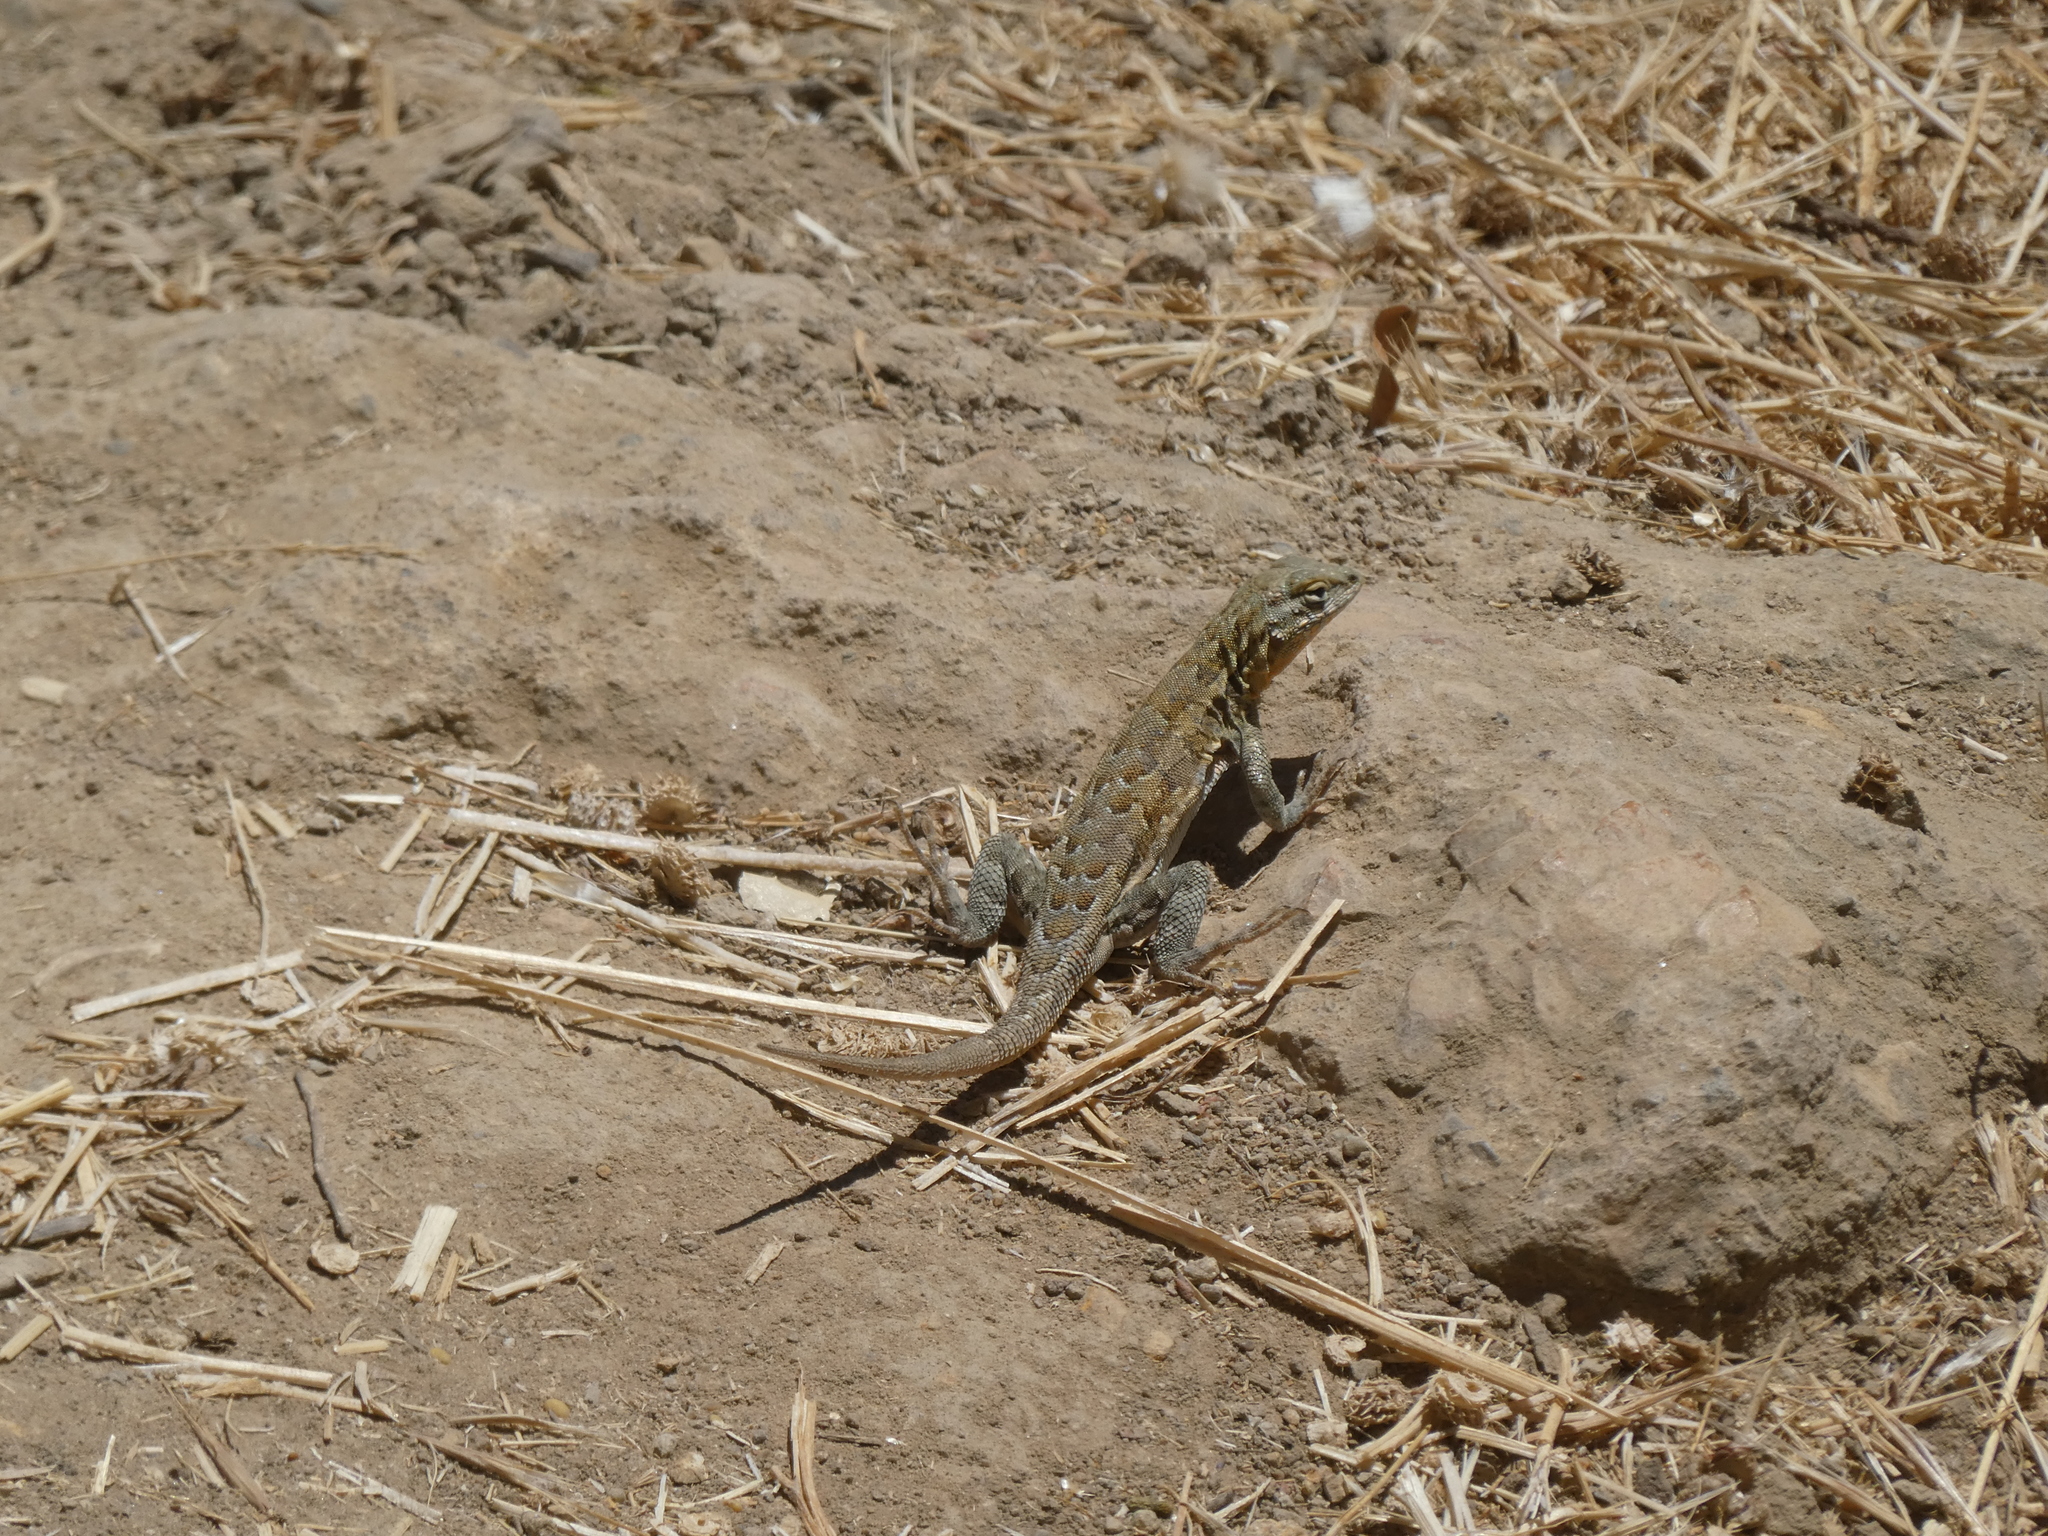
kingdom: Animalia
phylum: Chordata
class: Squamata
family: Phrynosomatidae
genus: Uta
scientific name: Uta stansburiana
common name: Side-blotched lizard
